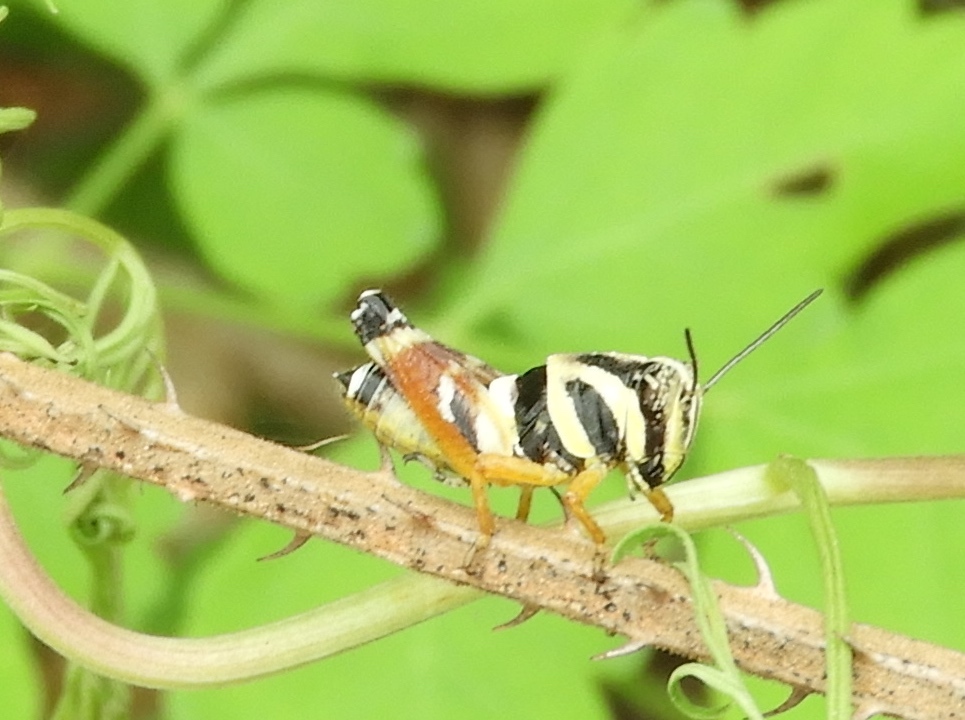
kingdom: Animalia
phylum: Arthropoda
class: Insecta
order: Orthoptera
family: Acrididae
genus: Aidemona
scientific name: Aidemona azteca
